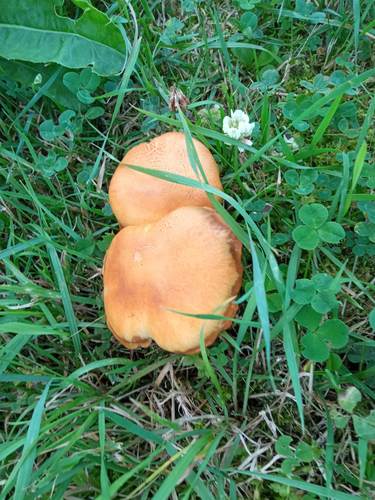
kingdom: Fungi
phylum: Basidiomycota
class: Agaricomycetes
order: Agaricales
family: Strophariaceae
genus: Kuehneromyces
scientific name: Kuehneromyces mutabilis
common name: Sheathed woodtuft
